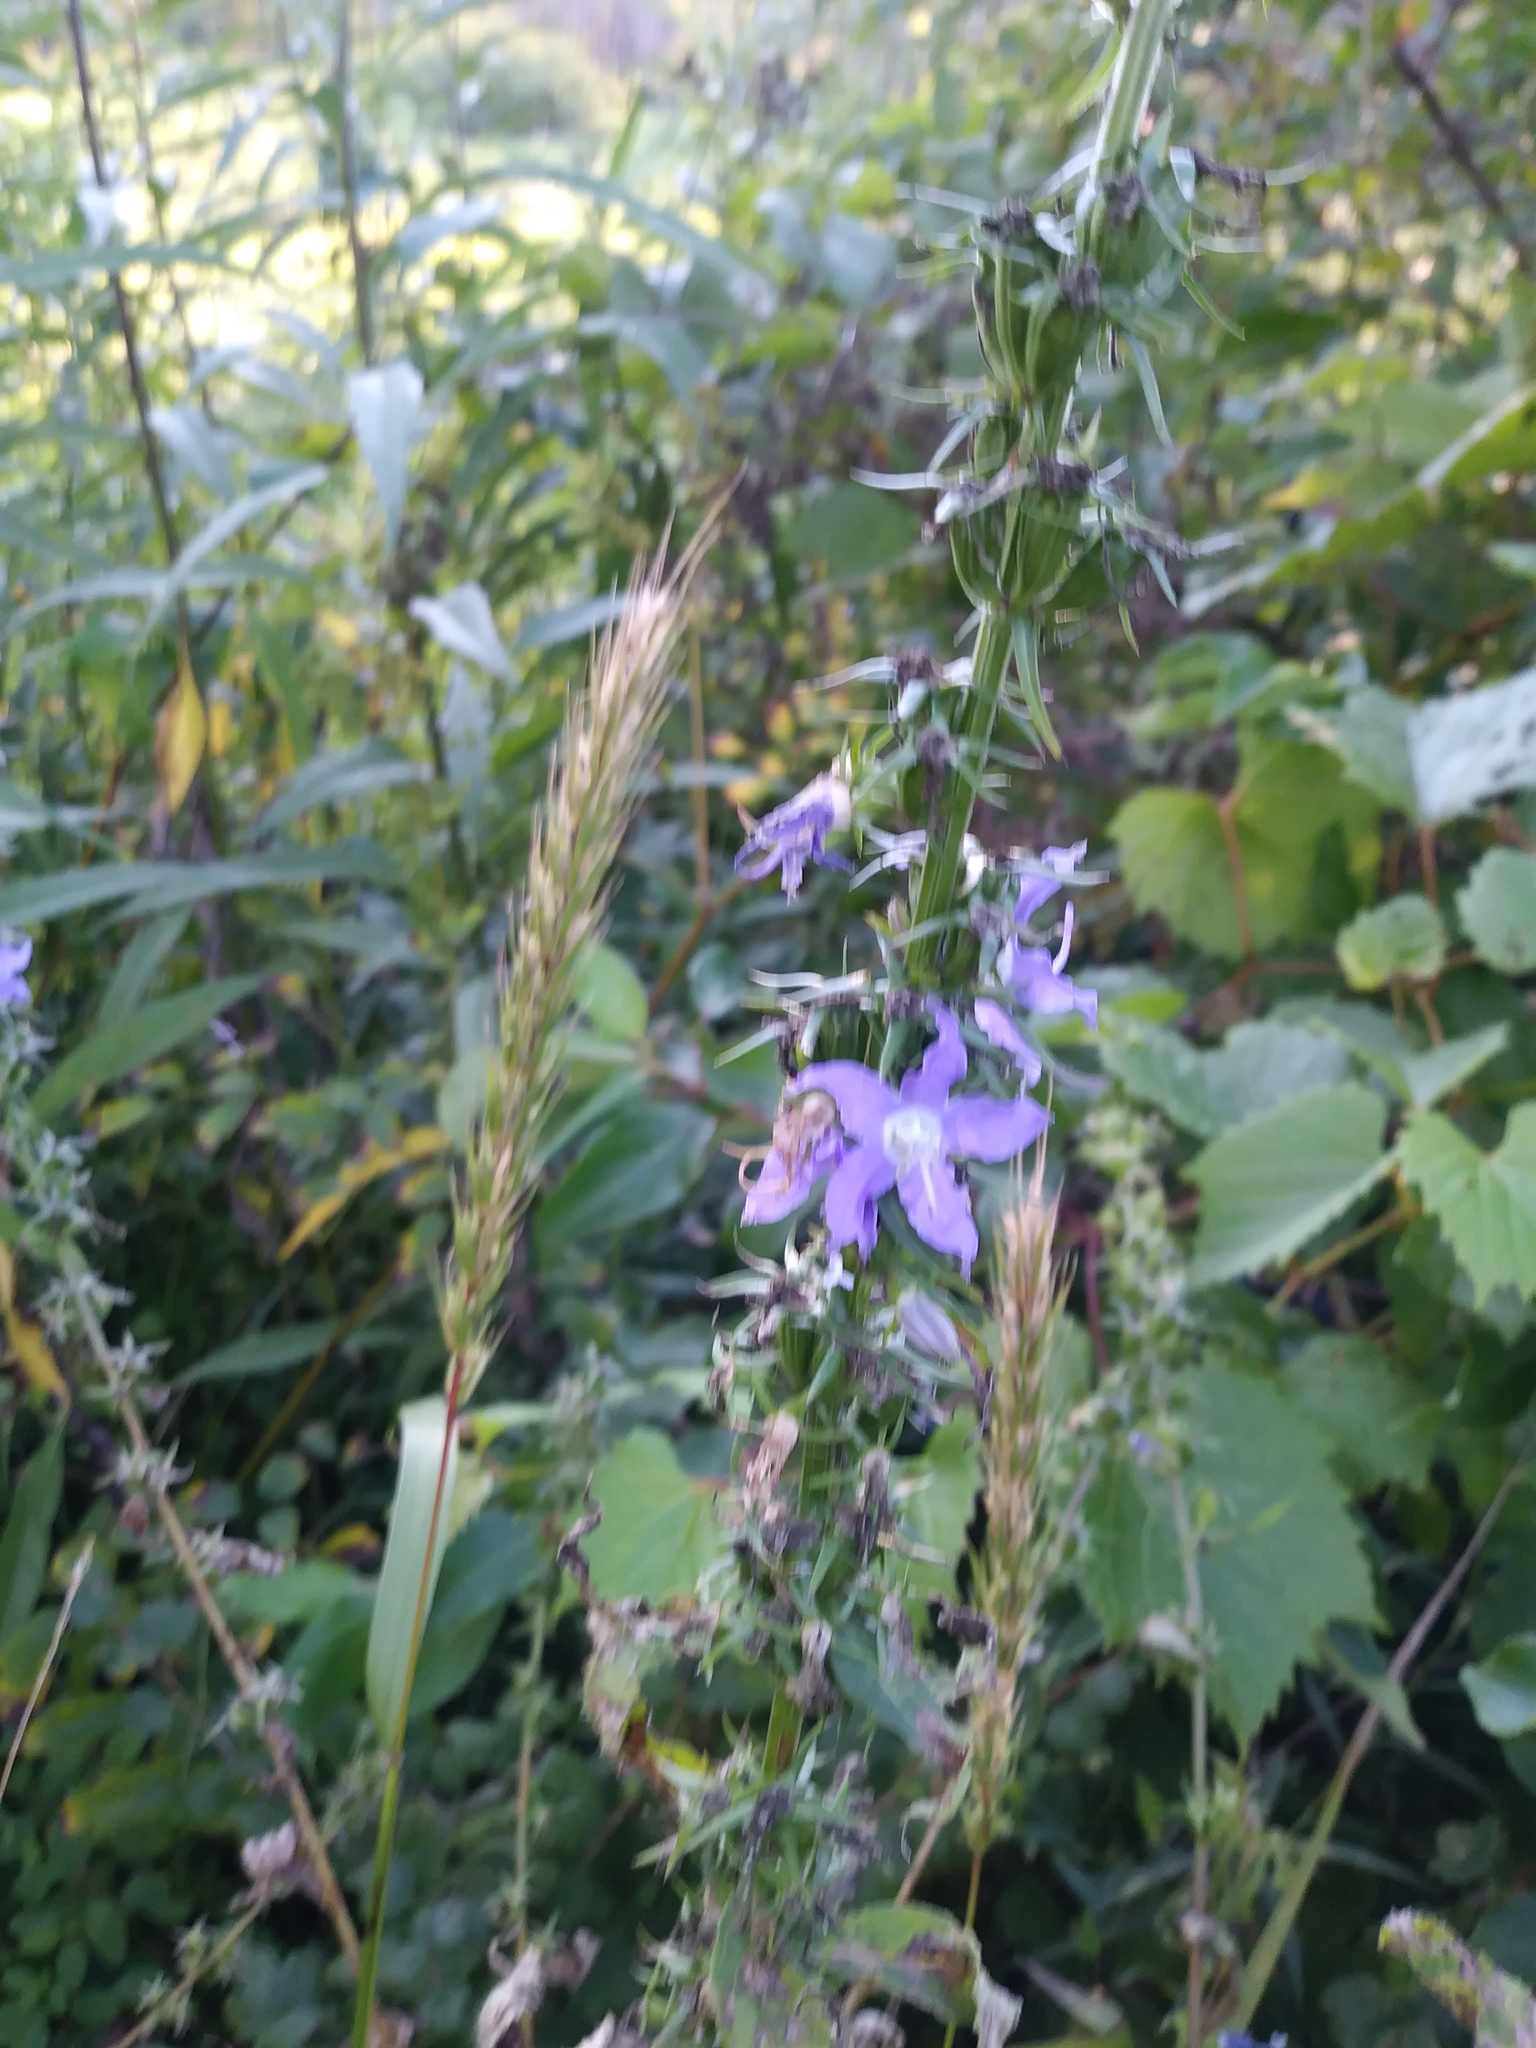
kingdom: Plantae
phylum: Tracheophyta
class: Magnoliopsida
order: Asterales
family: Campanulaceae
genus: Campanulastrum
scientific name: Campanulastrum americanum
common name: American bellflower
